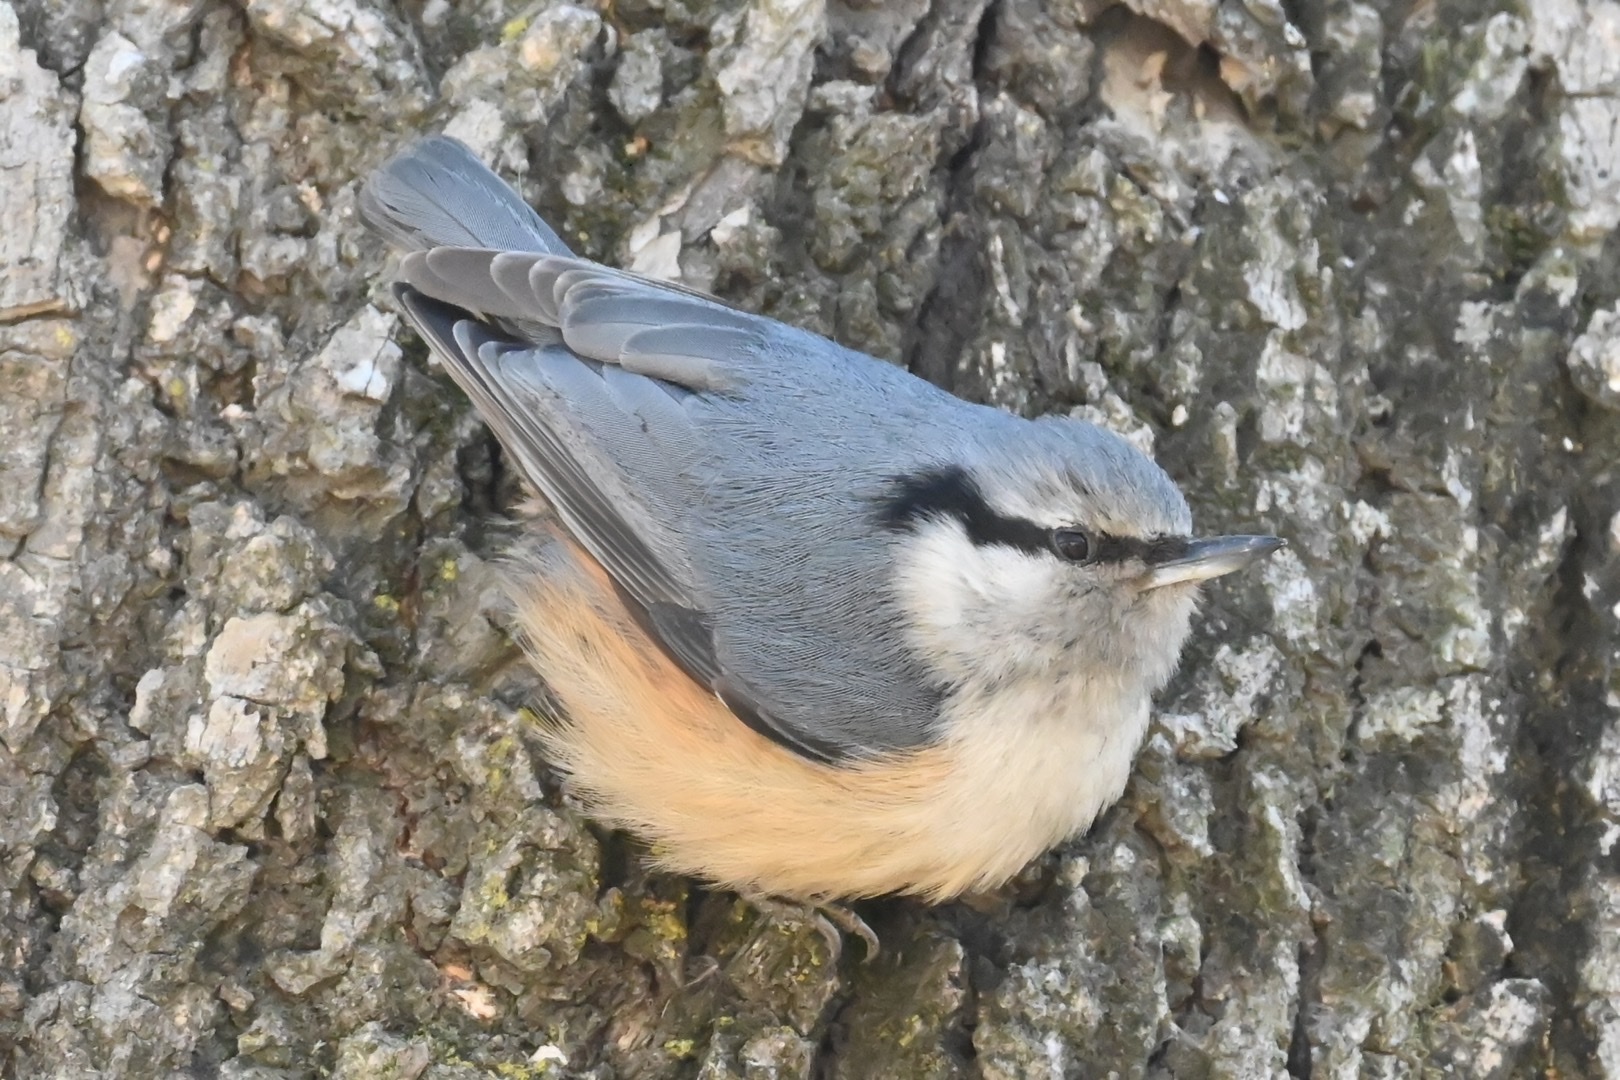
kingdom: Animalia
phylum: Chordata
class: Aves
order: Passeriformes
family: Sittidae
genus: Sitta
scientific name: Sitta europaea
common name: Eurasian nuthatch
